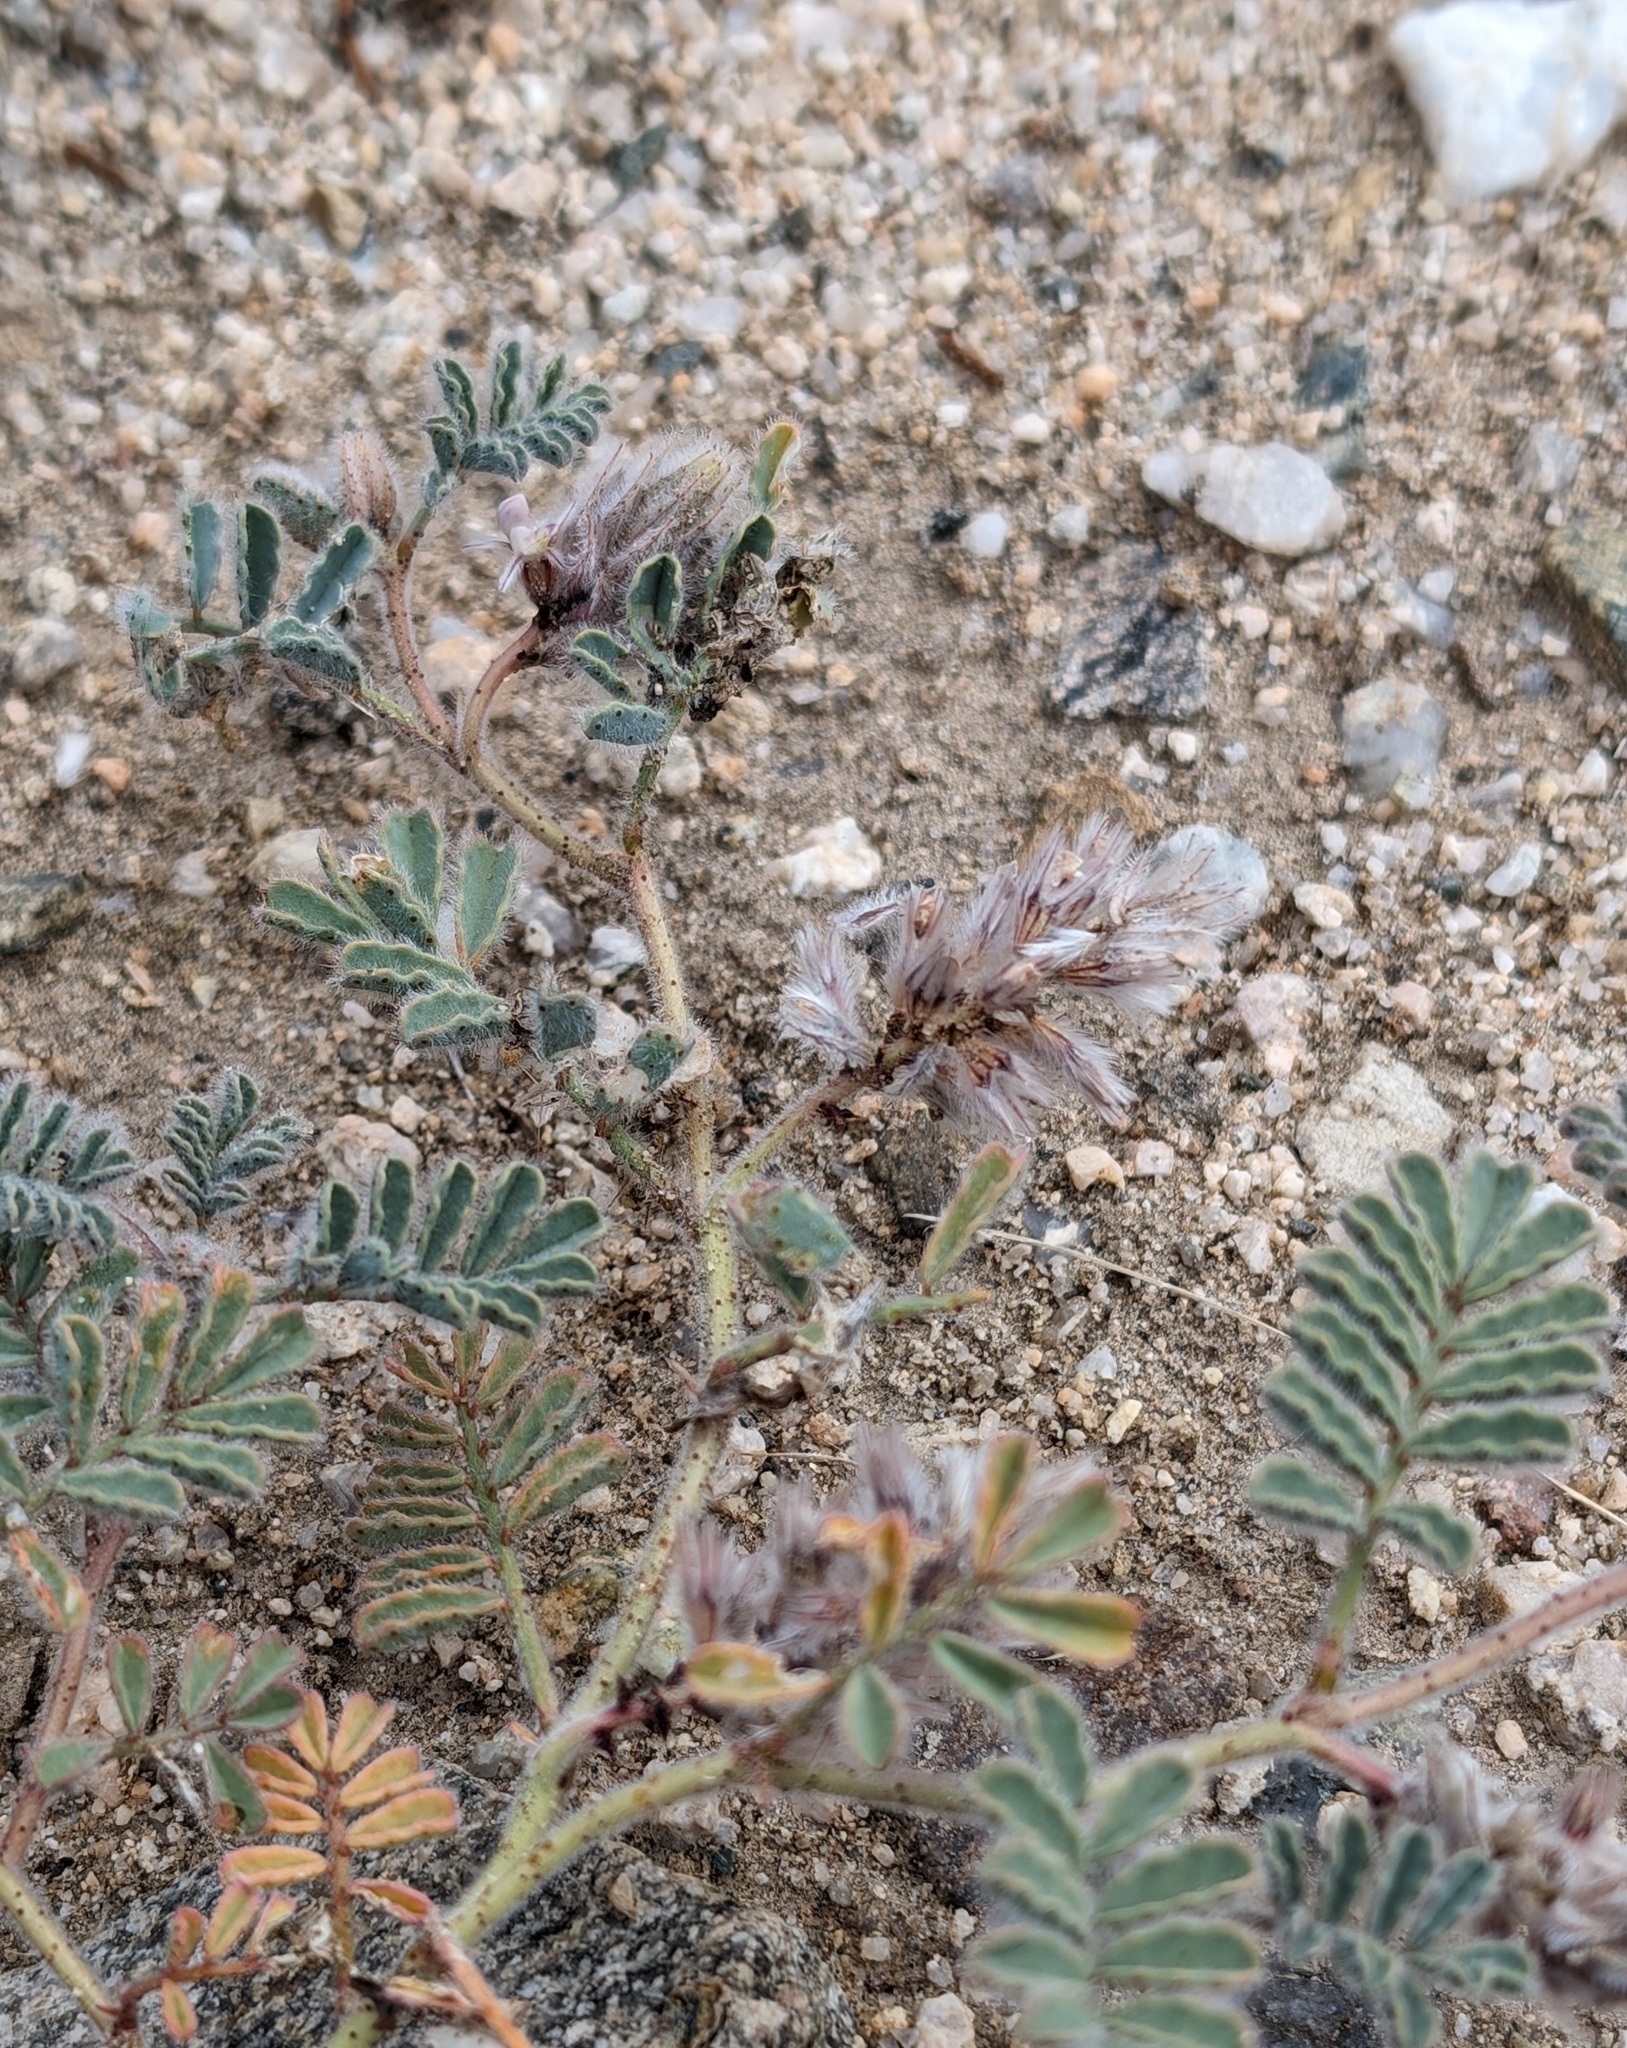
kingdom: Plantae
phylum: Tracheophyta
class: Magnoliopsida
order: Fabales
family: Fabaceae
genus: Dalea
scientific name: Dalea mollissima
